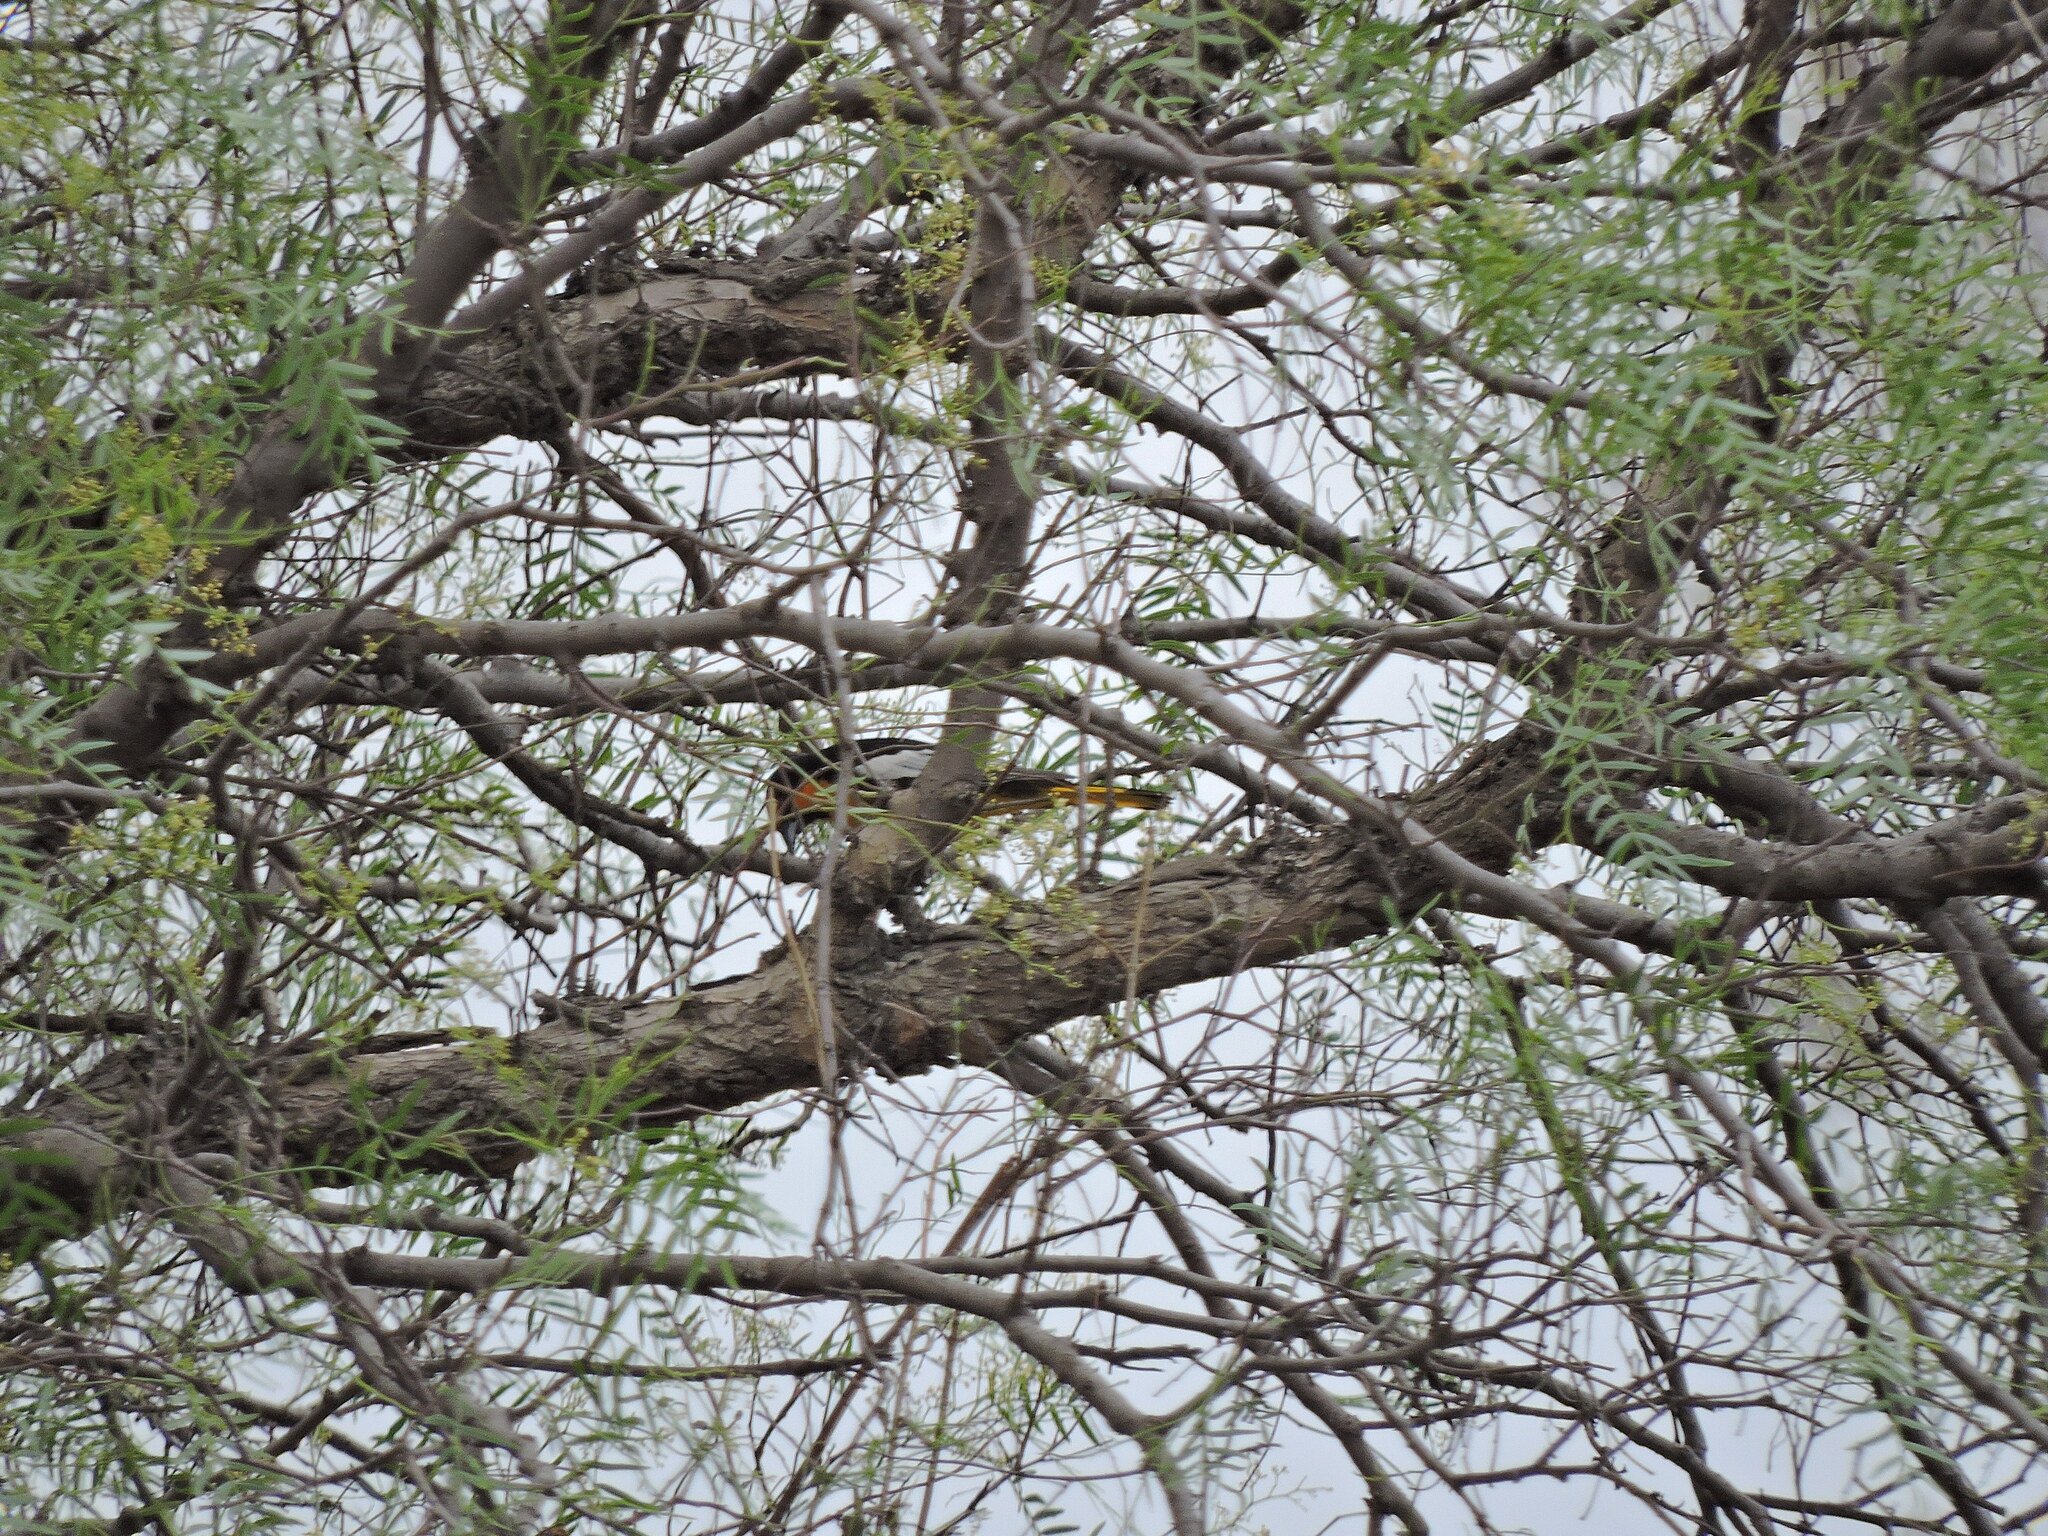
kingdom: Animalia
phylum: Chordata
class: Aves
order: Passeriformes
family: Icteridae
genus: Icterus
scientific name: Icterus abeillei
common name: Black-backed oriole
